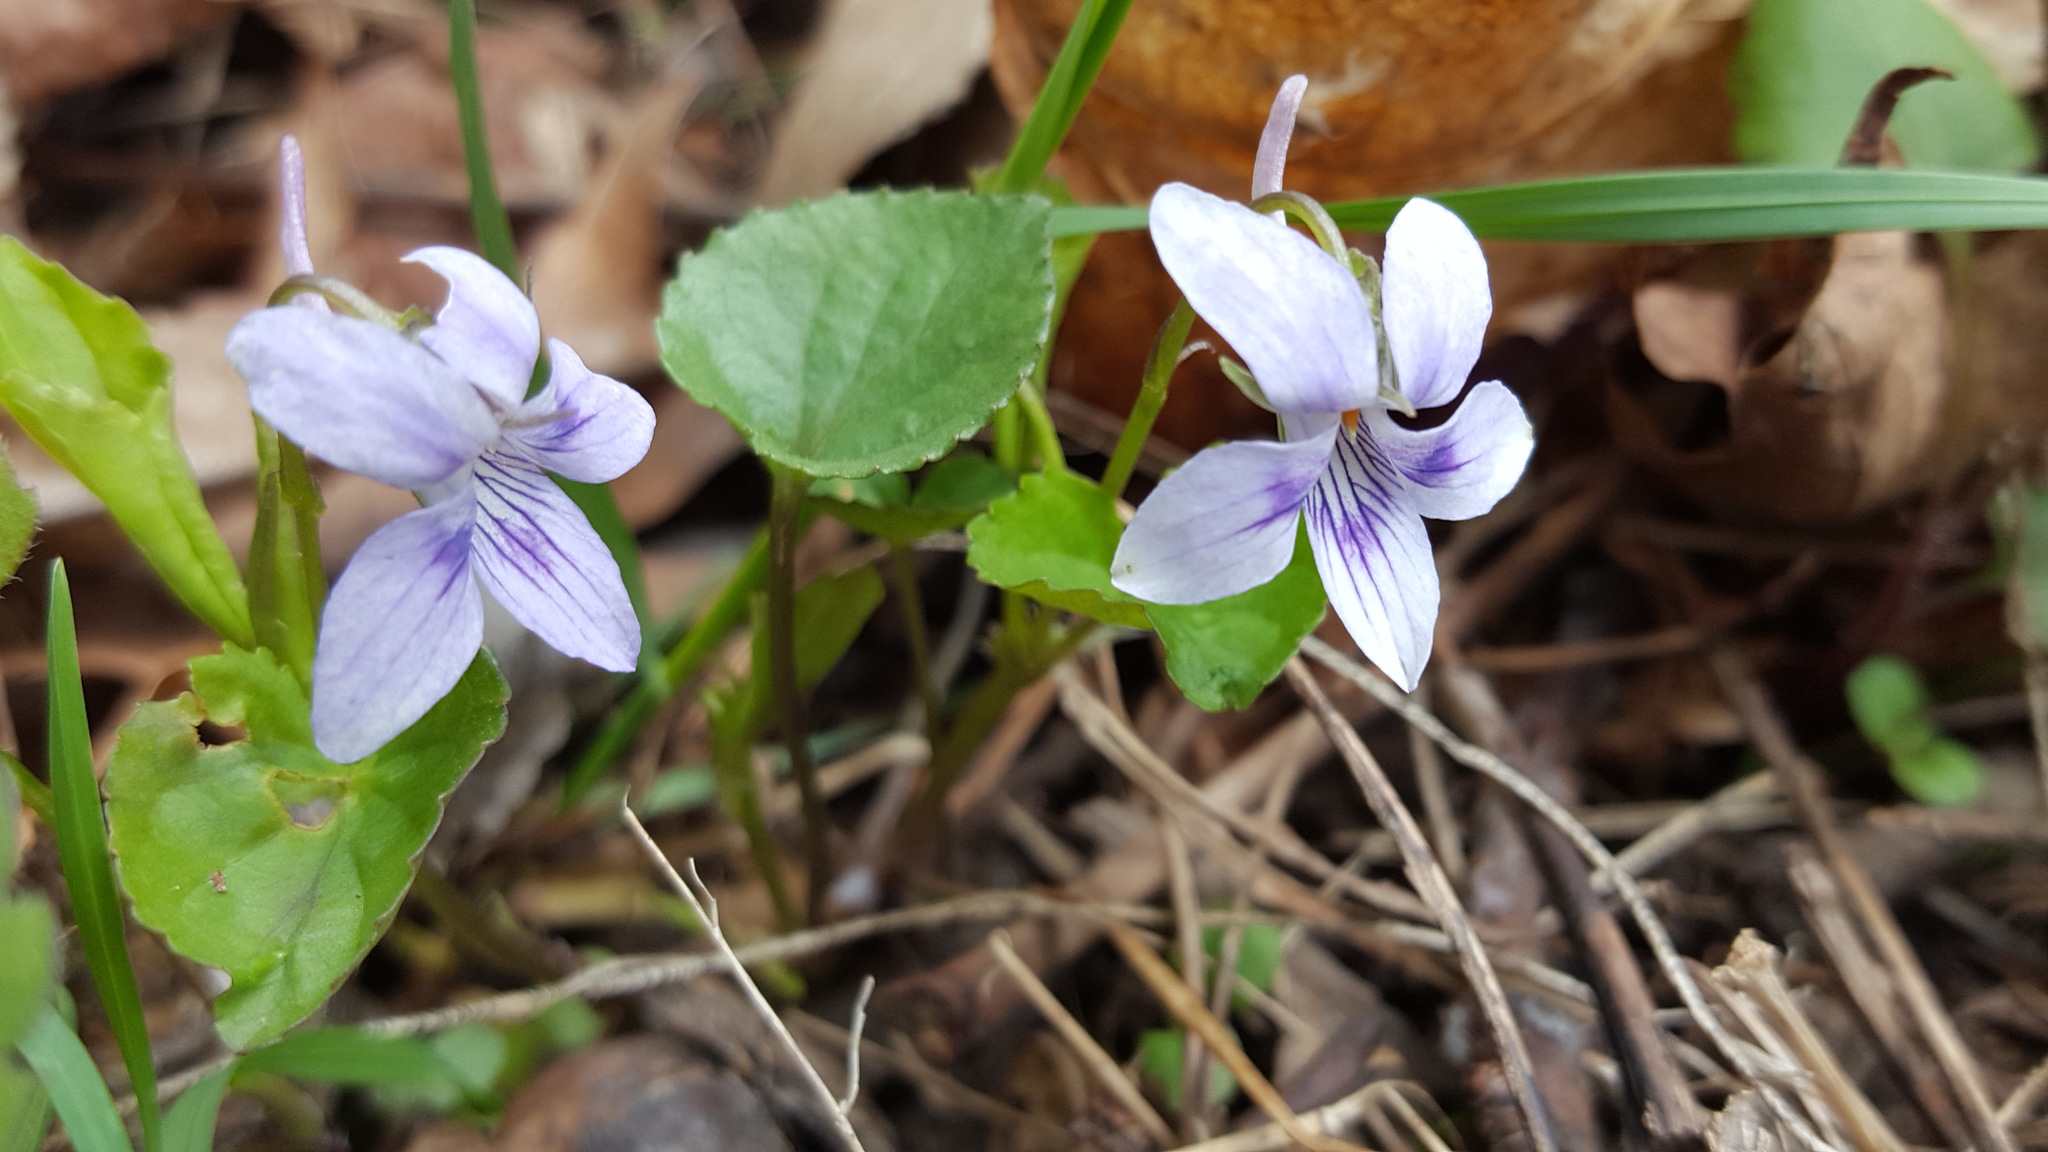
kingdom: Plantae
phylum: Tracheophyta
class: Magnoliopsida
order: Malpighiales
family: Violaceae
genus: Viola
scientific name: Viola rostrata
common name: Long-spur violet
